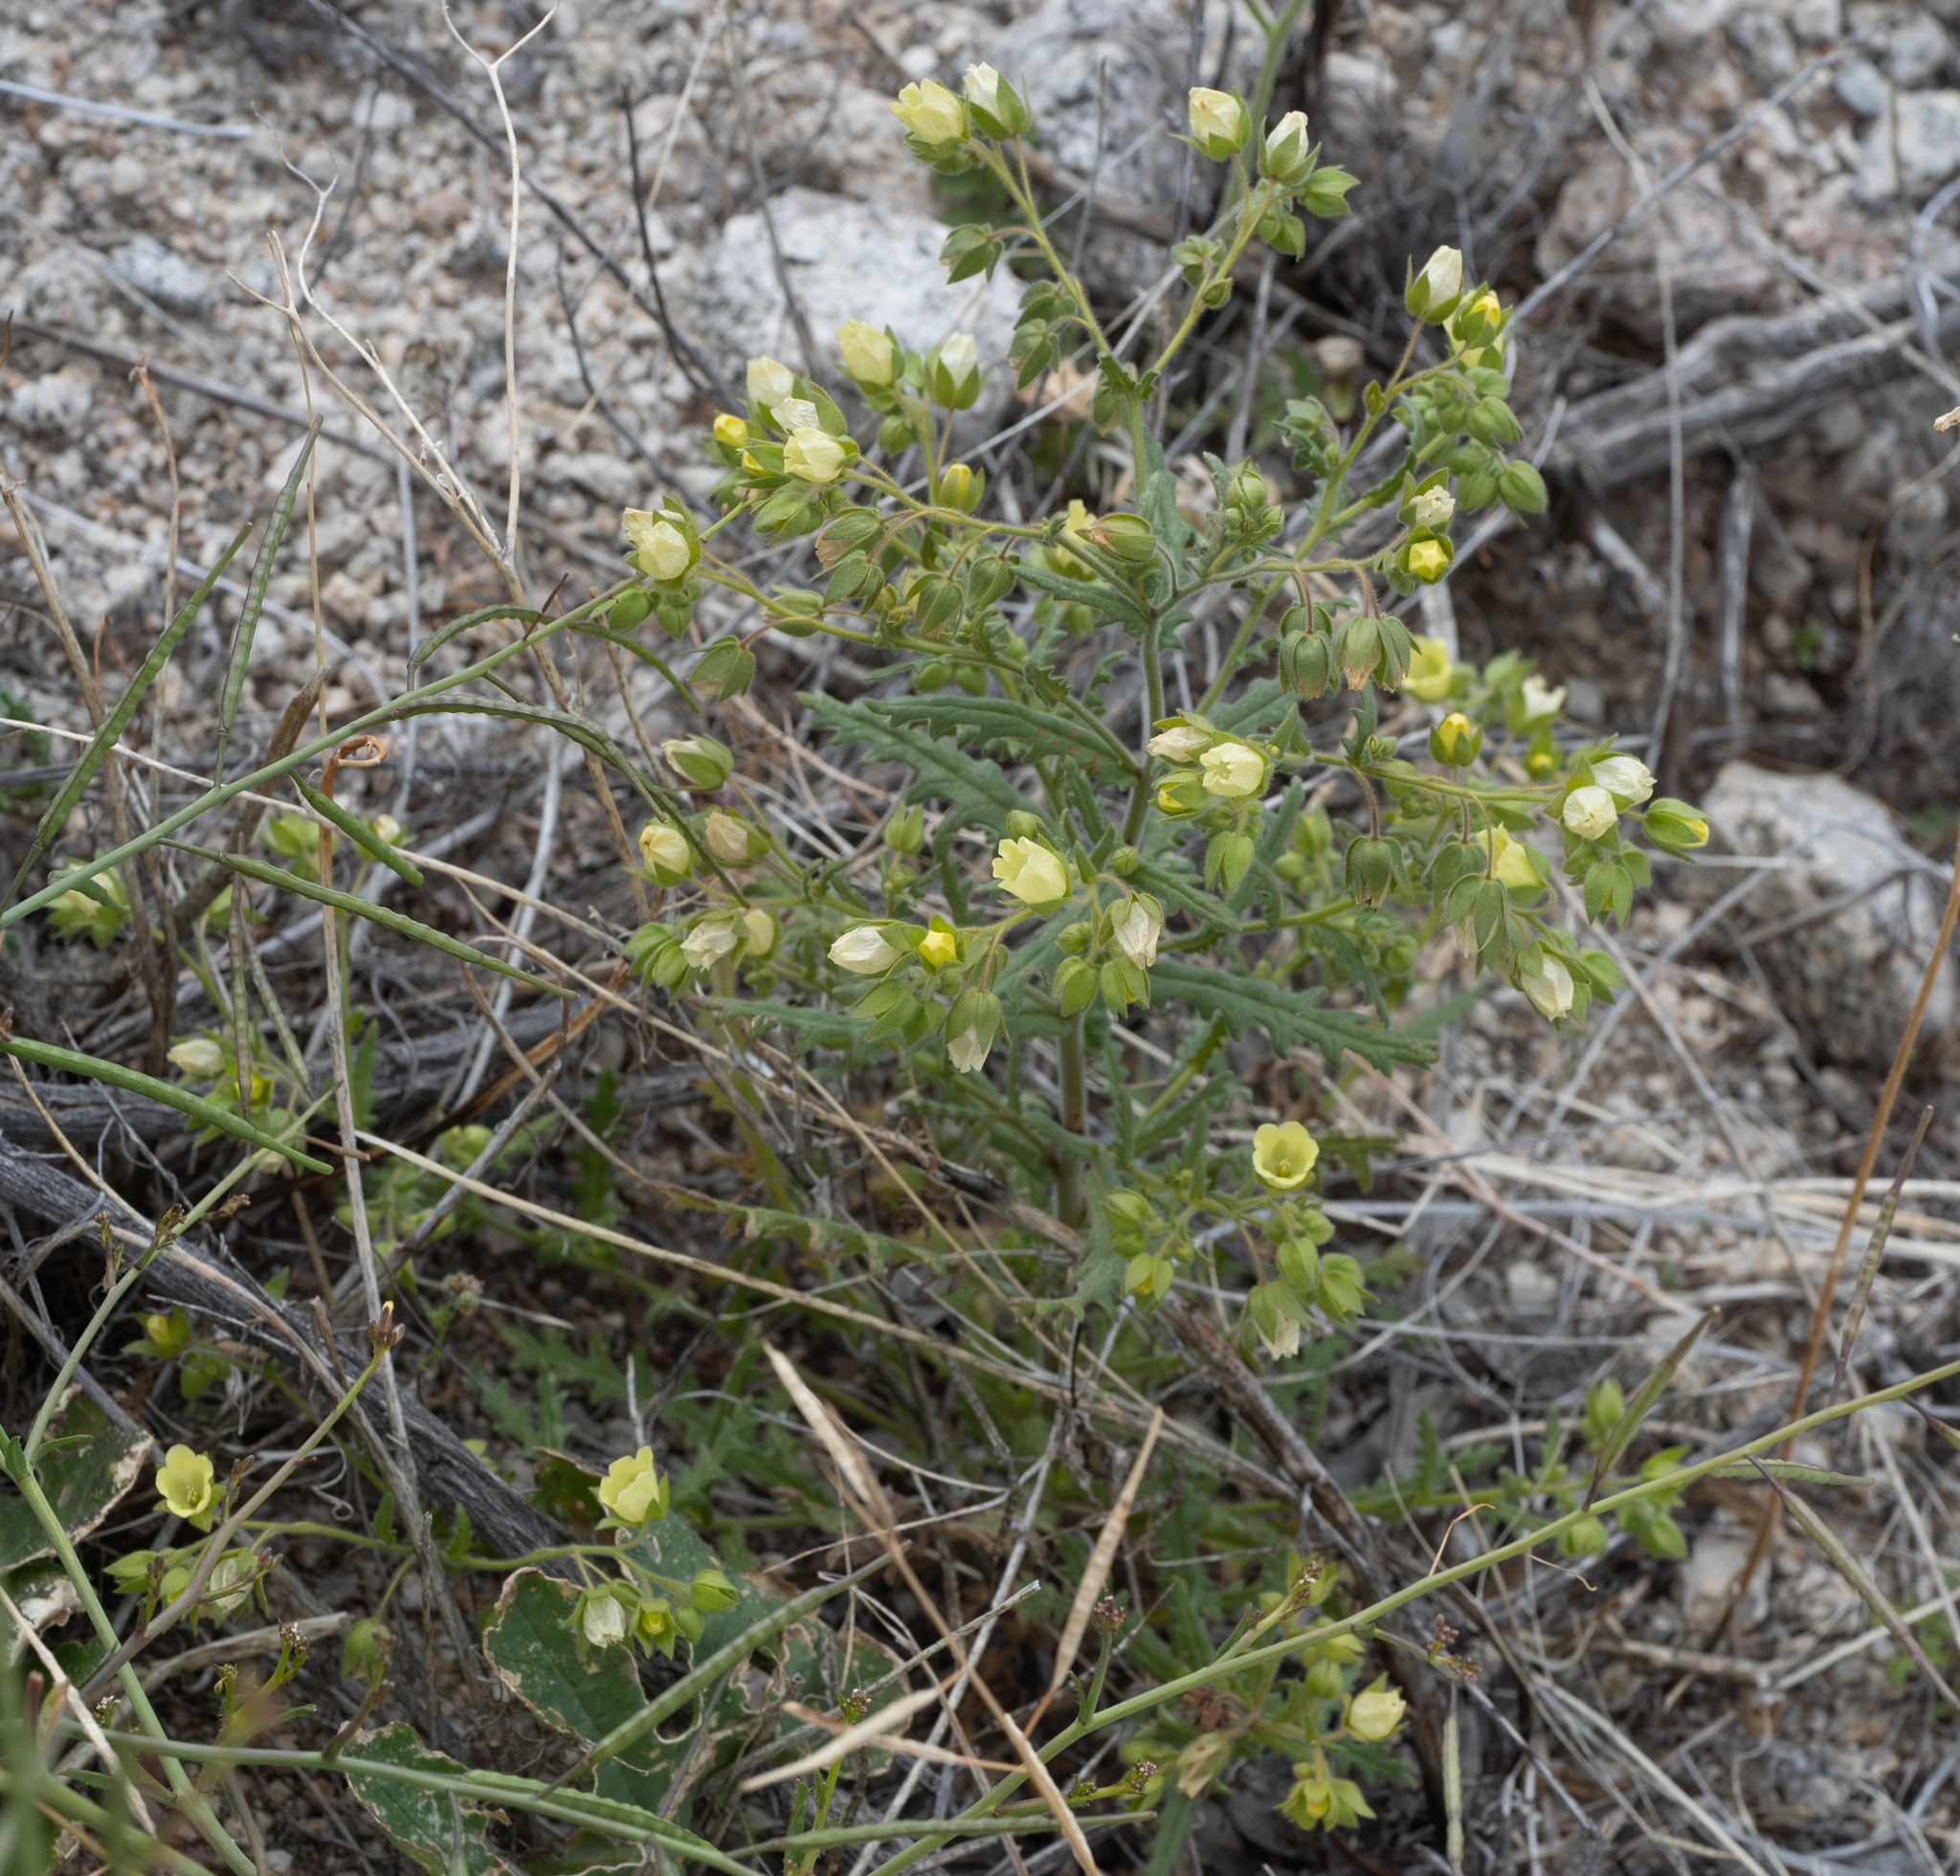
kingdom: Plantae
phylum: Tracheophyta
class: Magnoliopsida
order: Boraginales
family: Hydrophyllaceae
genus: Emmenanthe
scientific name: Emmenanthe penduliflora
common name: Whispering-bells
